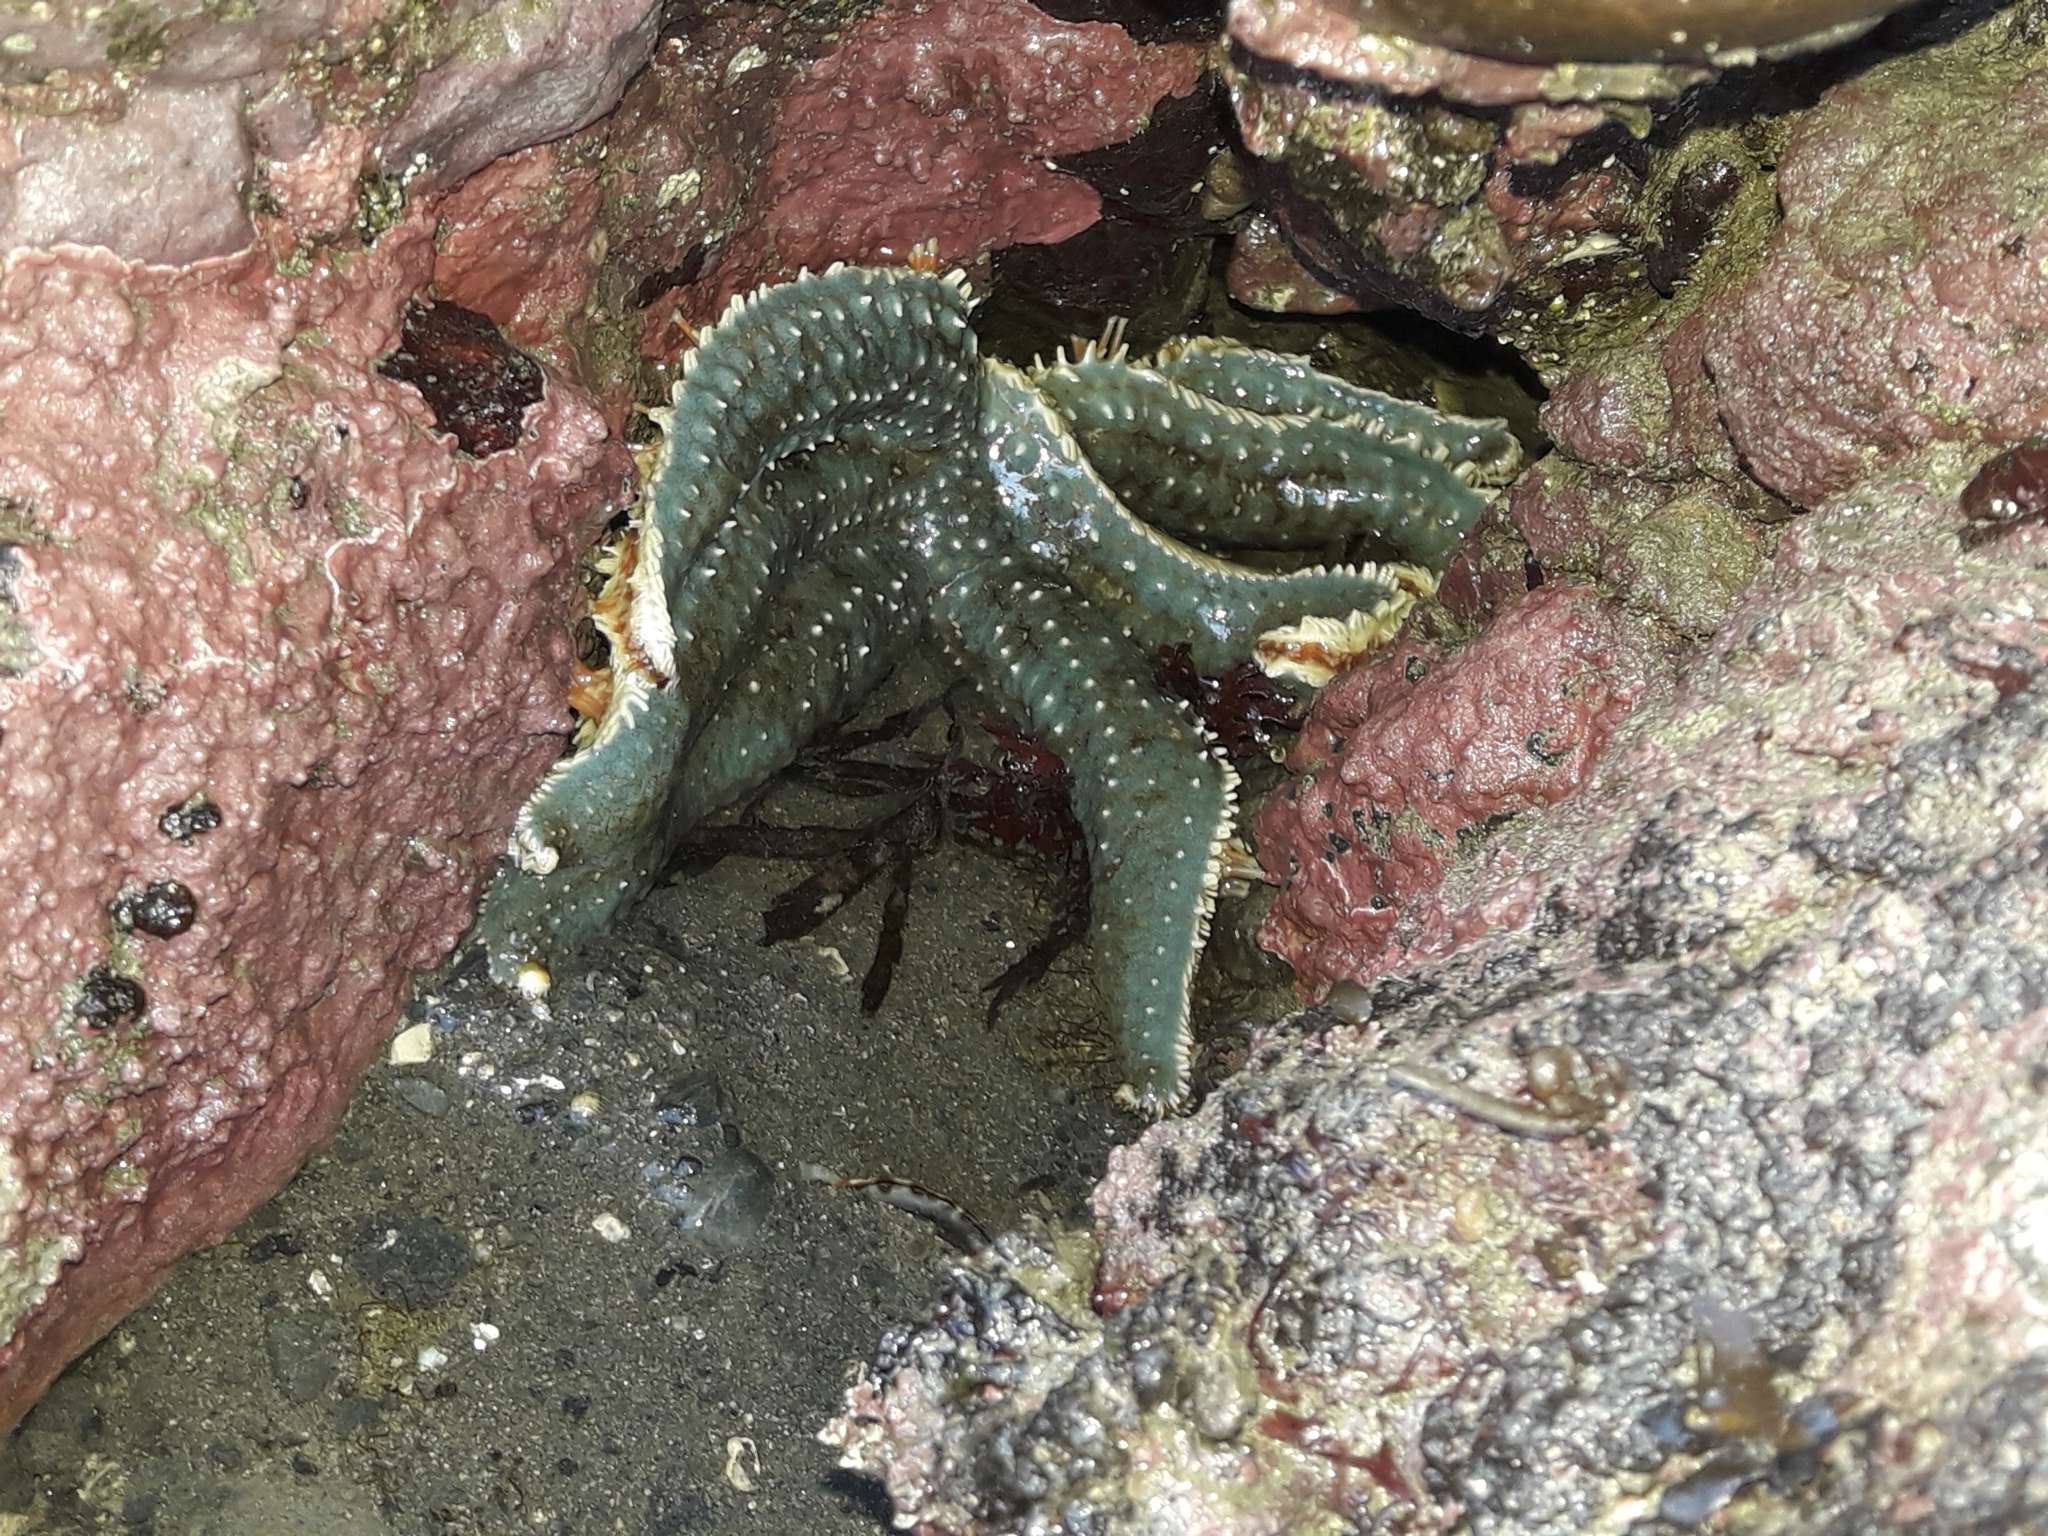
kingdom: Animalia
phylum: Echinodermata
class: Asteroidea
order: Forcipulatida
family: Asteriidae
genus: Astrostole
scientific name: Astrostole scabra
